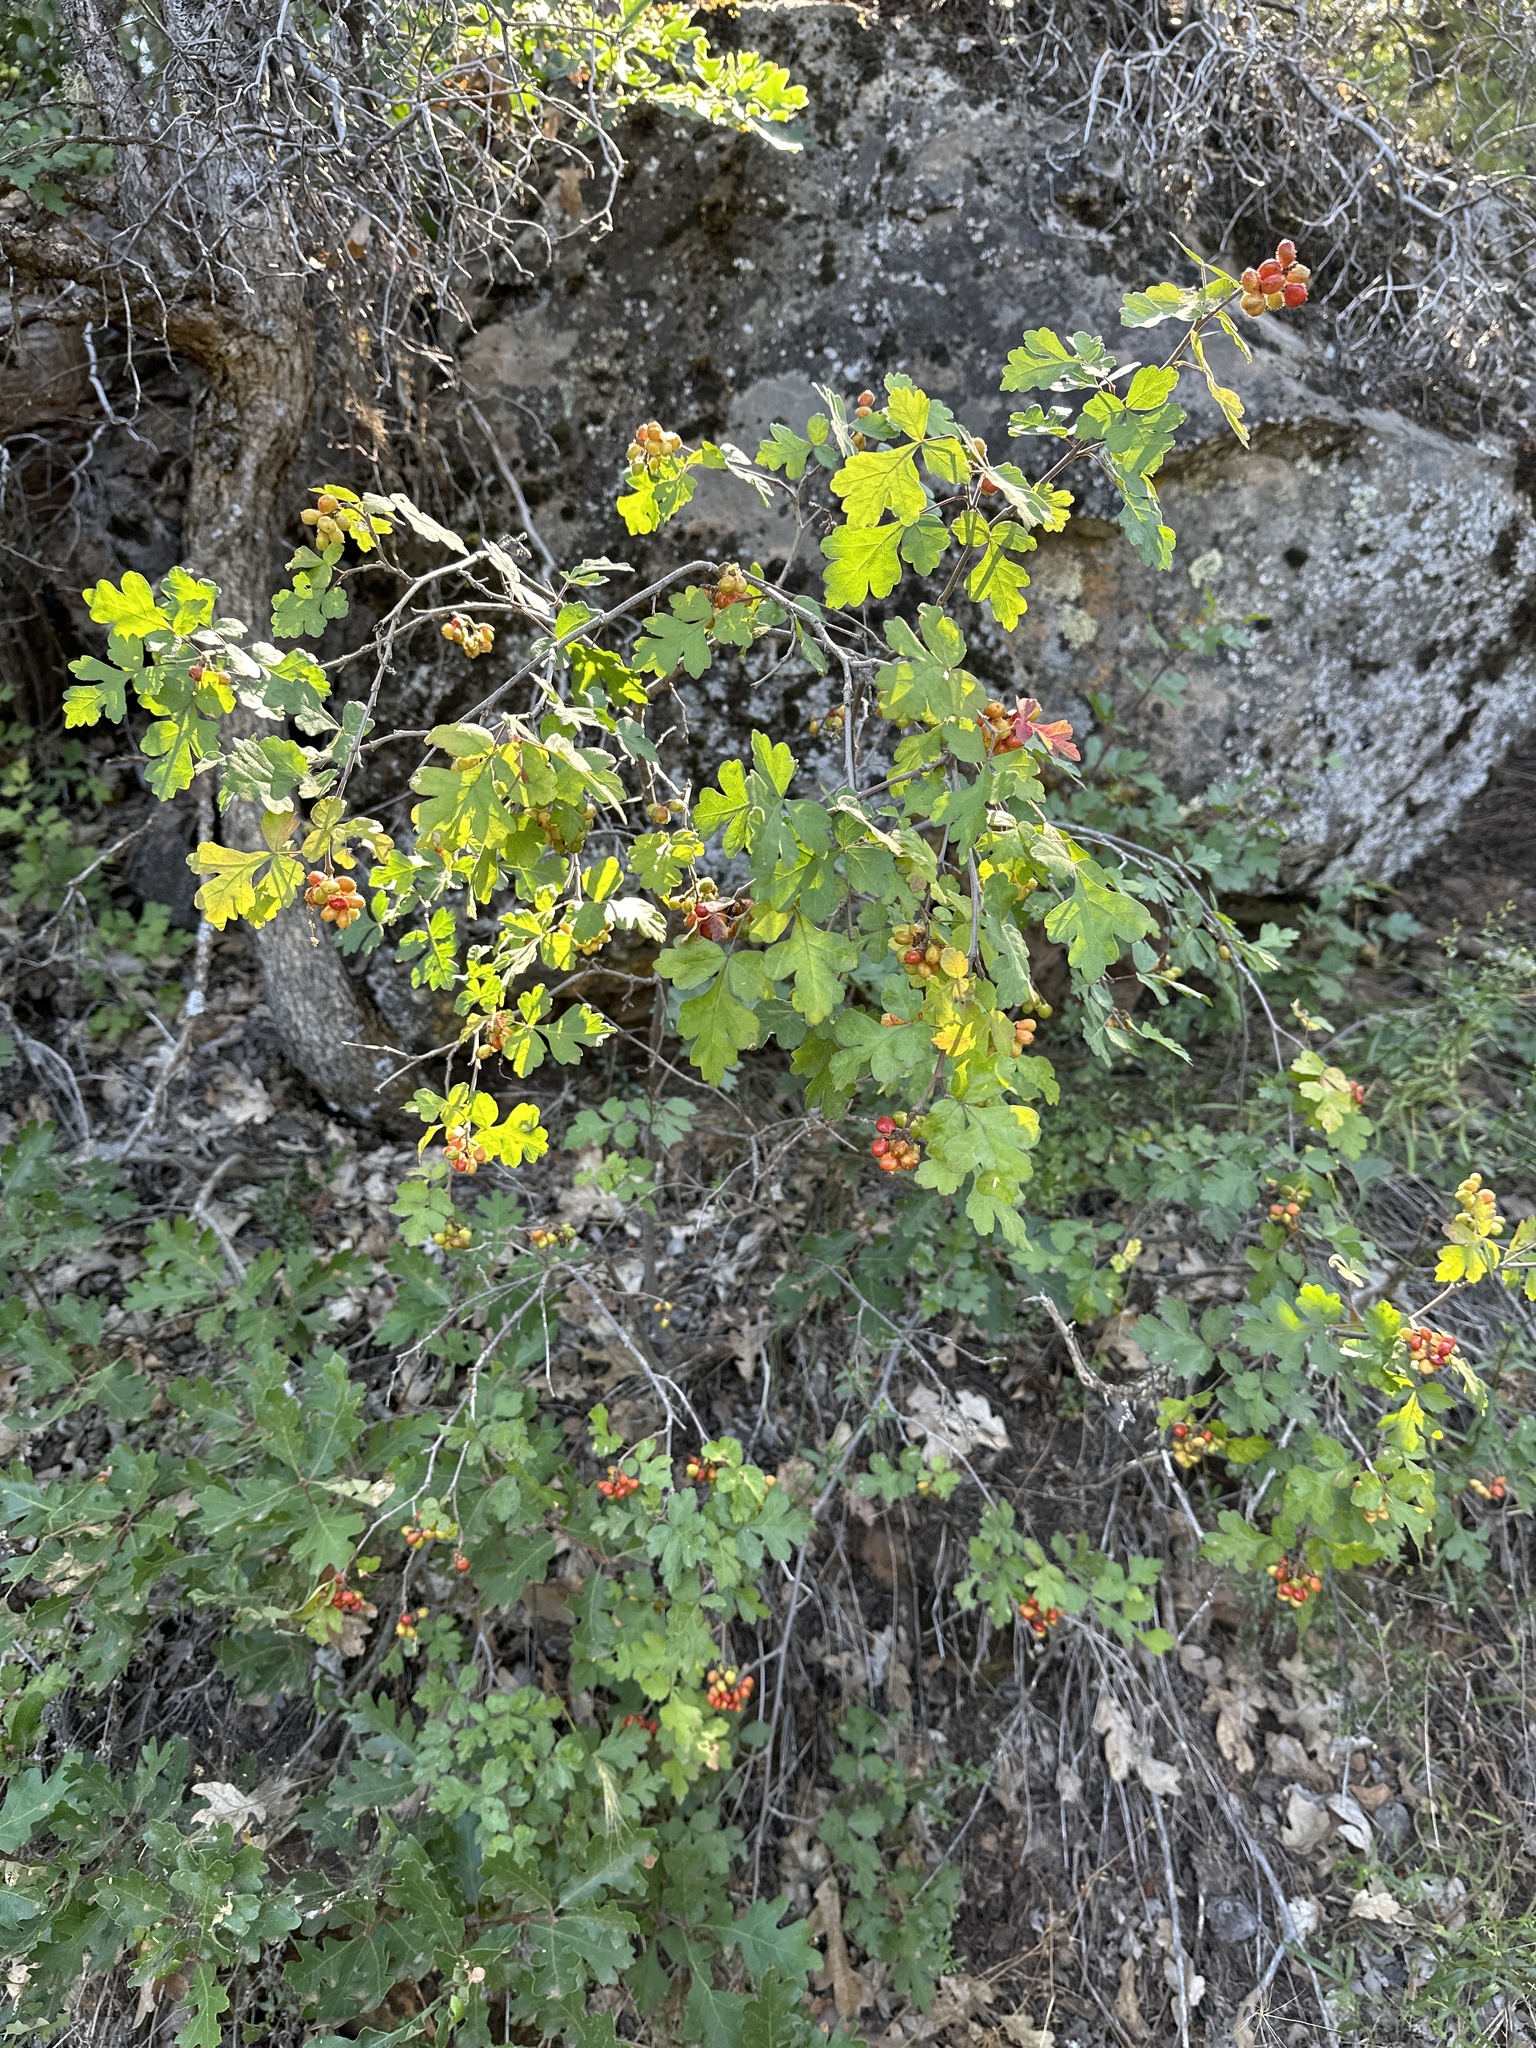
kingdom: Plantae
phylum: Tracheophyta
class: Magnoliopsida
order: Sapindales
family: Anacardiaceae
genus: Rhus
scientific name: Rhus aromatica
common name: Aromatic sumac
